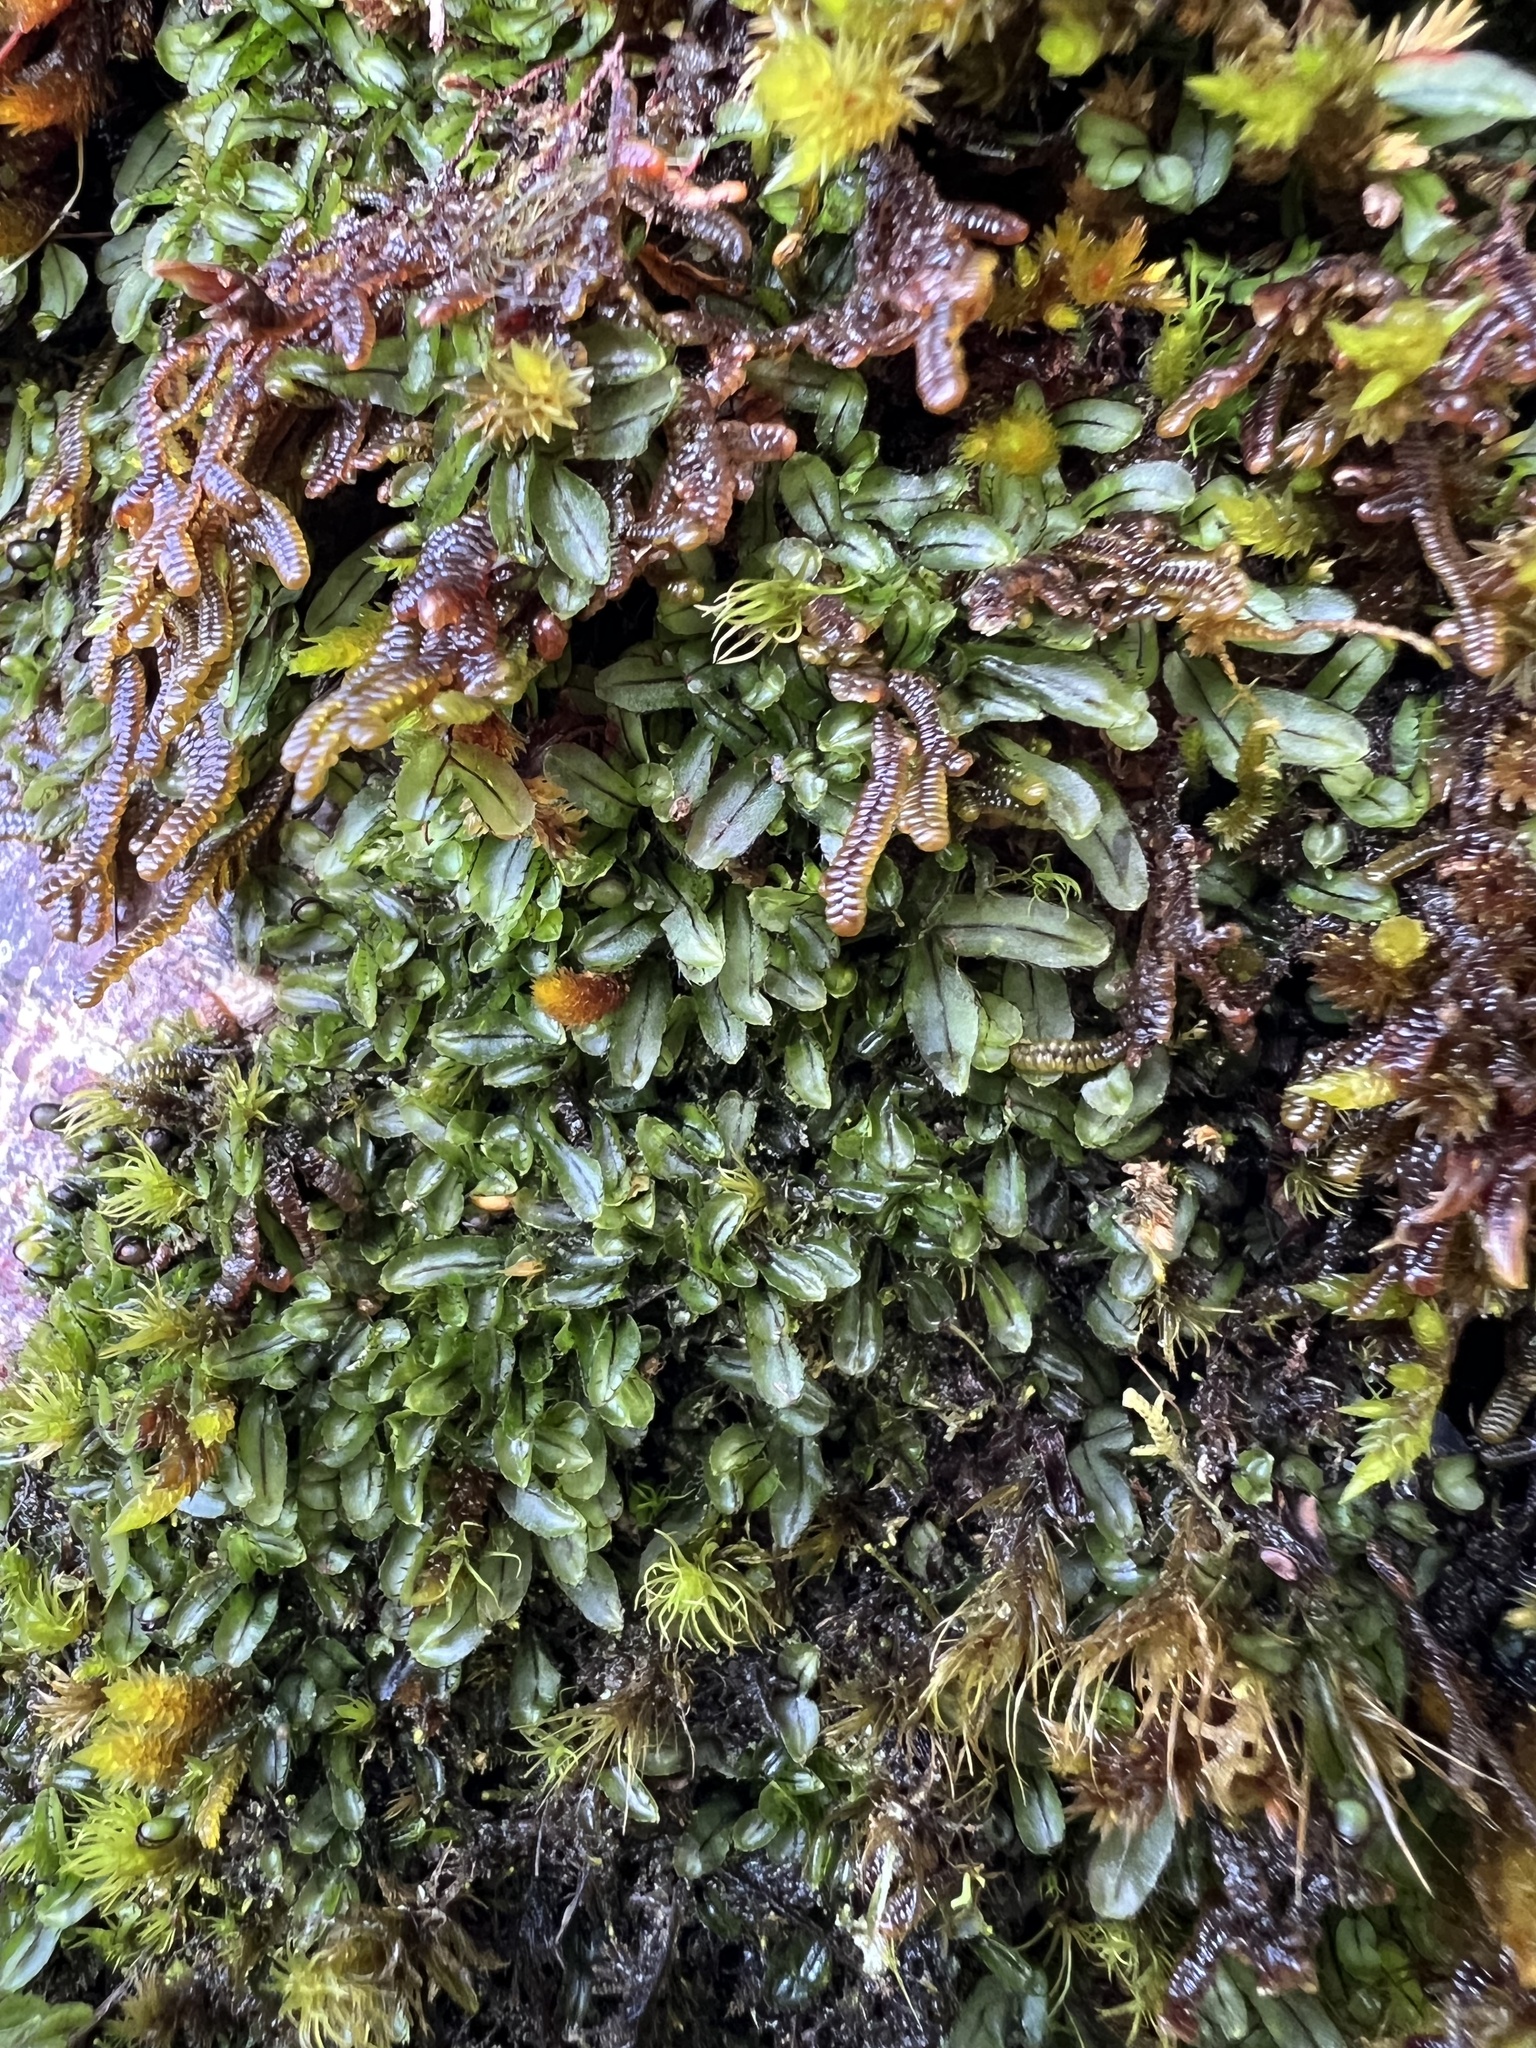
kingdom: Plantae
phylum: Tracheophyta
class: Polypodiopsida
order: Hymenophyllales
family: Hymenophyllaceae
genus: Hymenophyllum
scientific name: Hymenophyllum armstrongii
